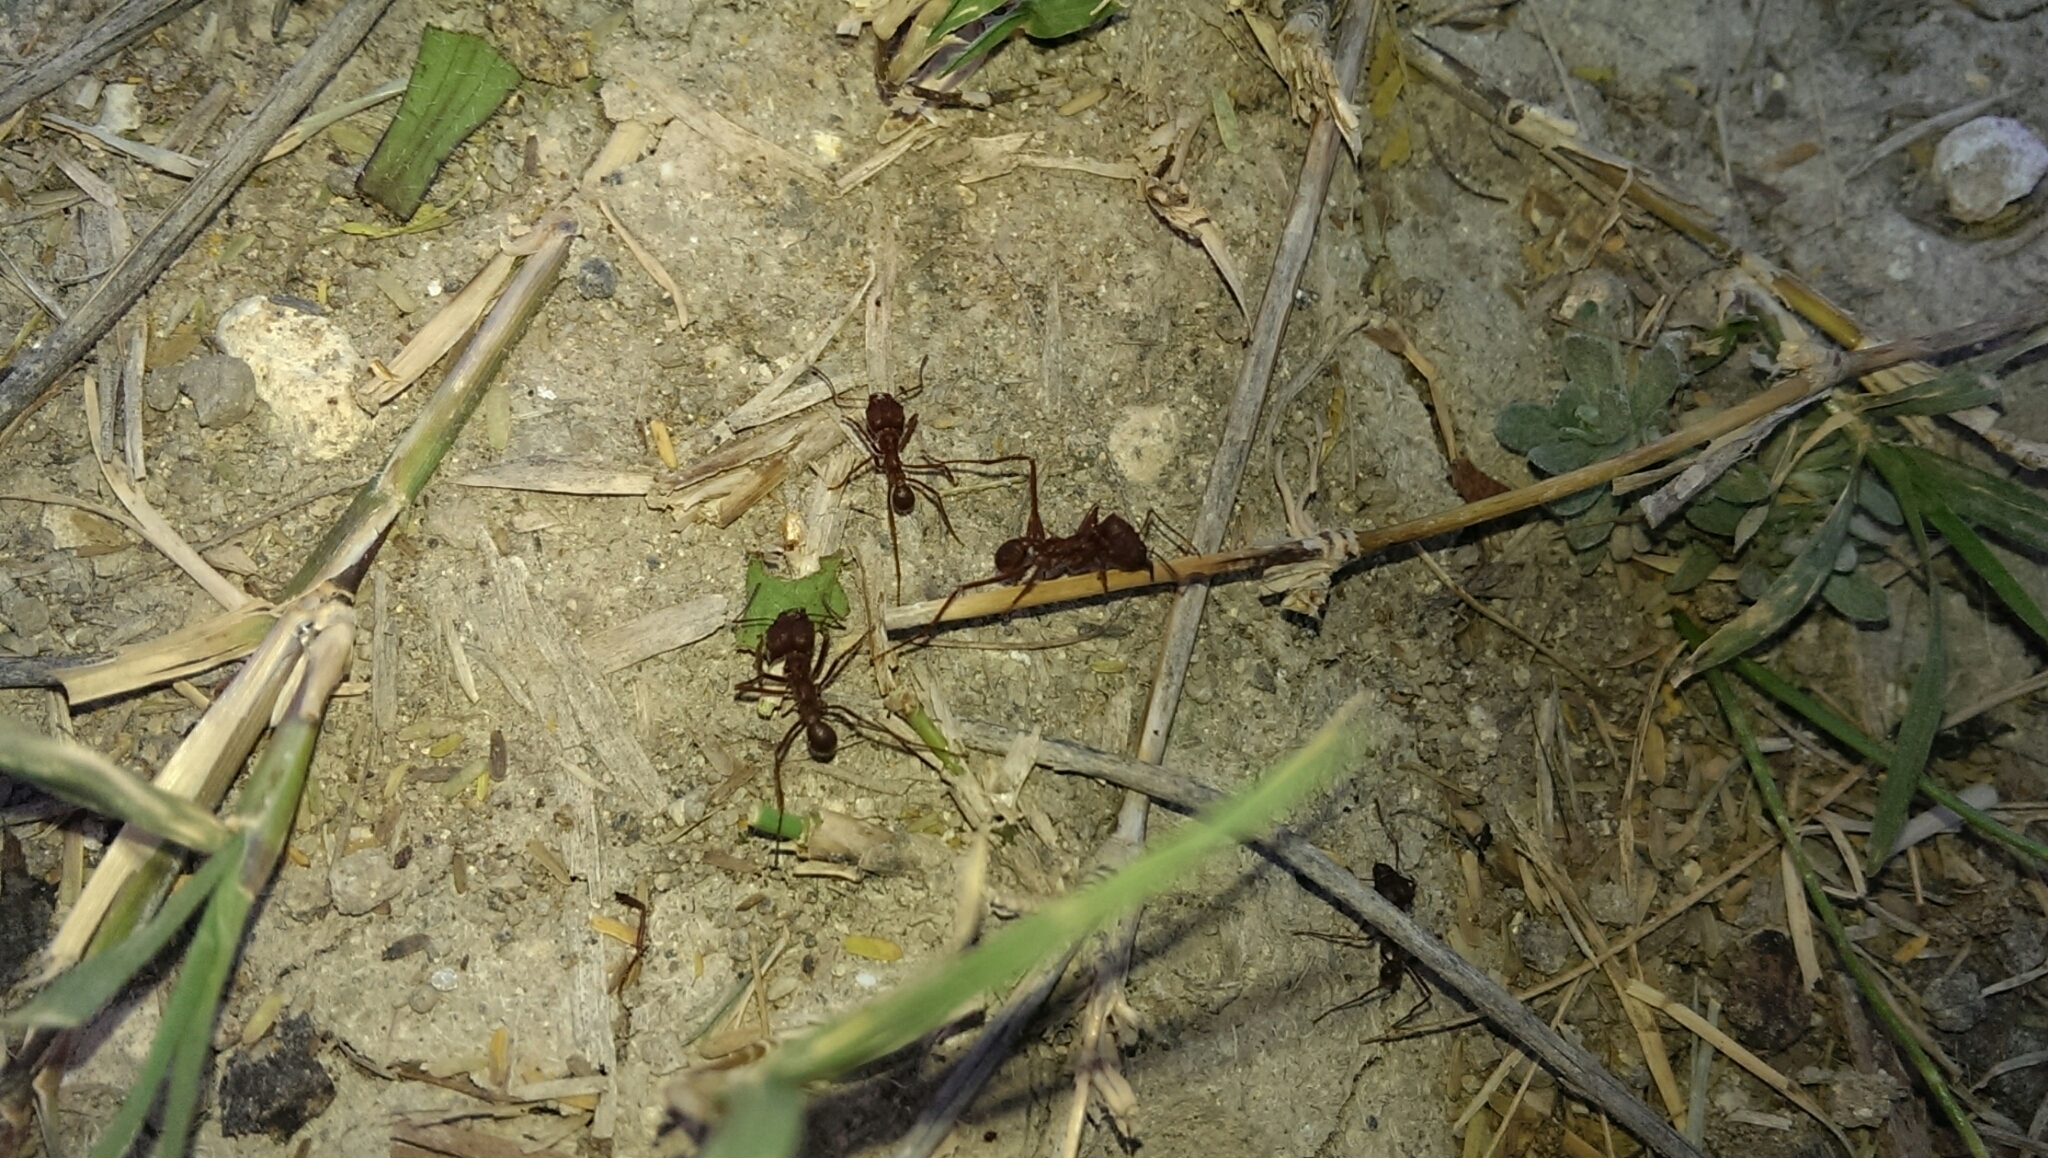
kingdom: Animalia
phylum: Arthropoda
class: Insecta
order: Hymenoptera
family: Formicidae
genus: Atta
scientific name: Atta texana
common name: Texas leafcutting ant
